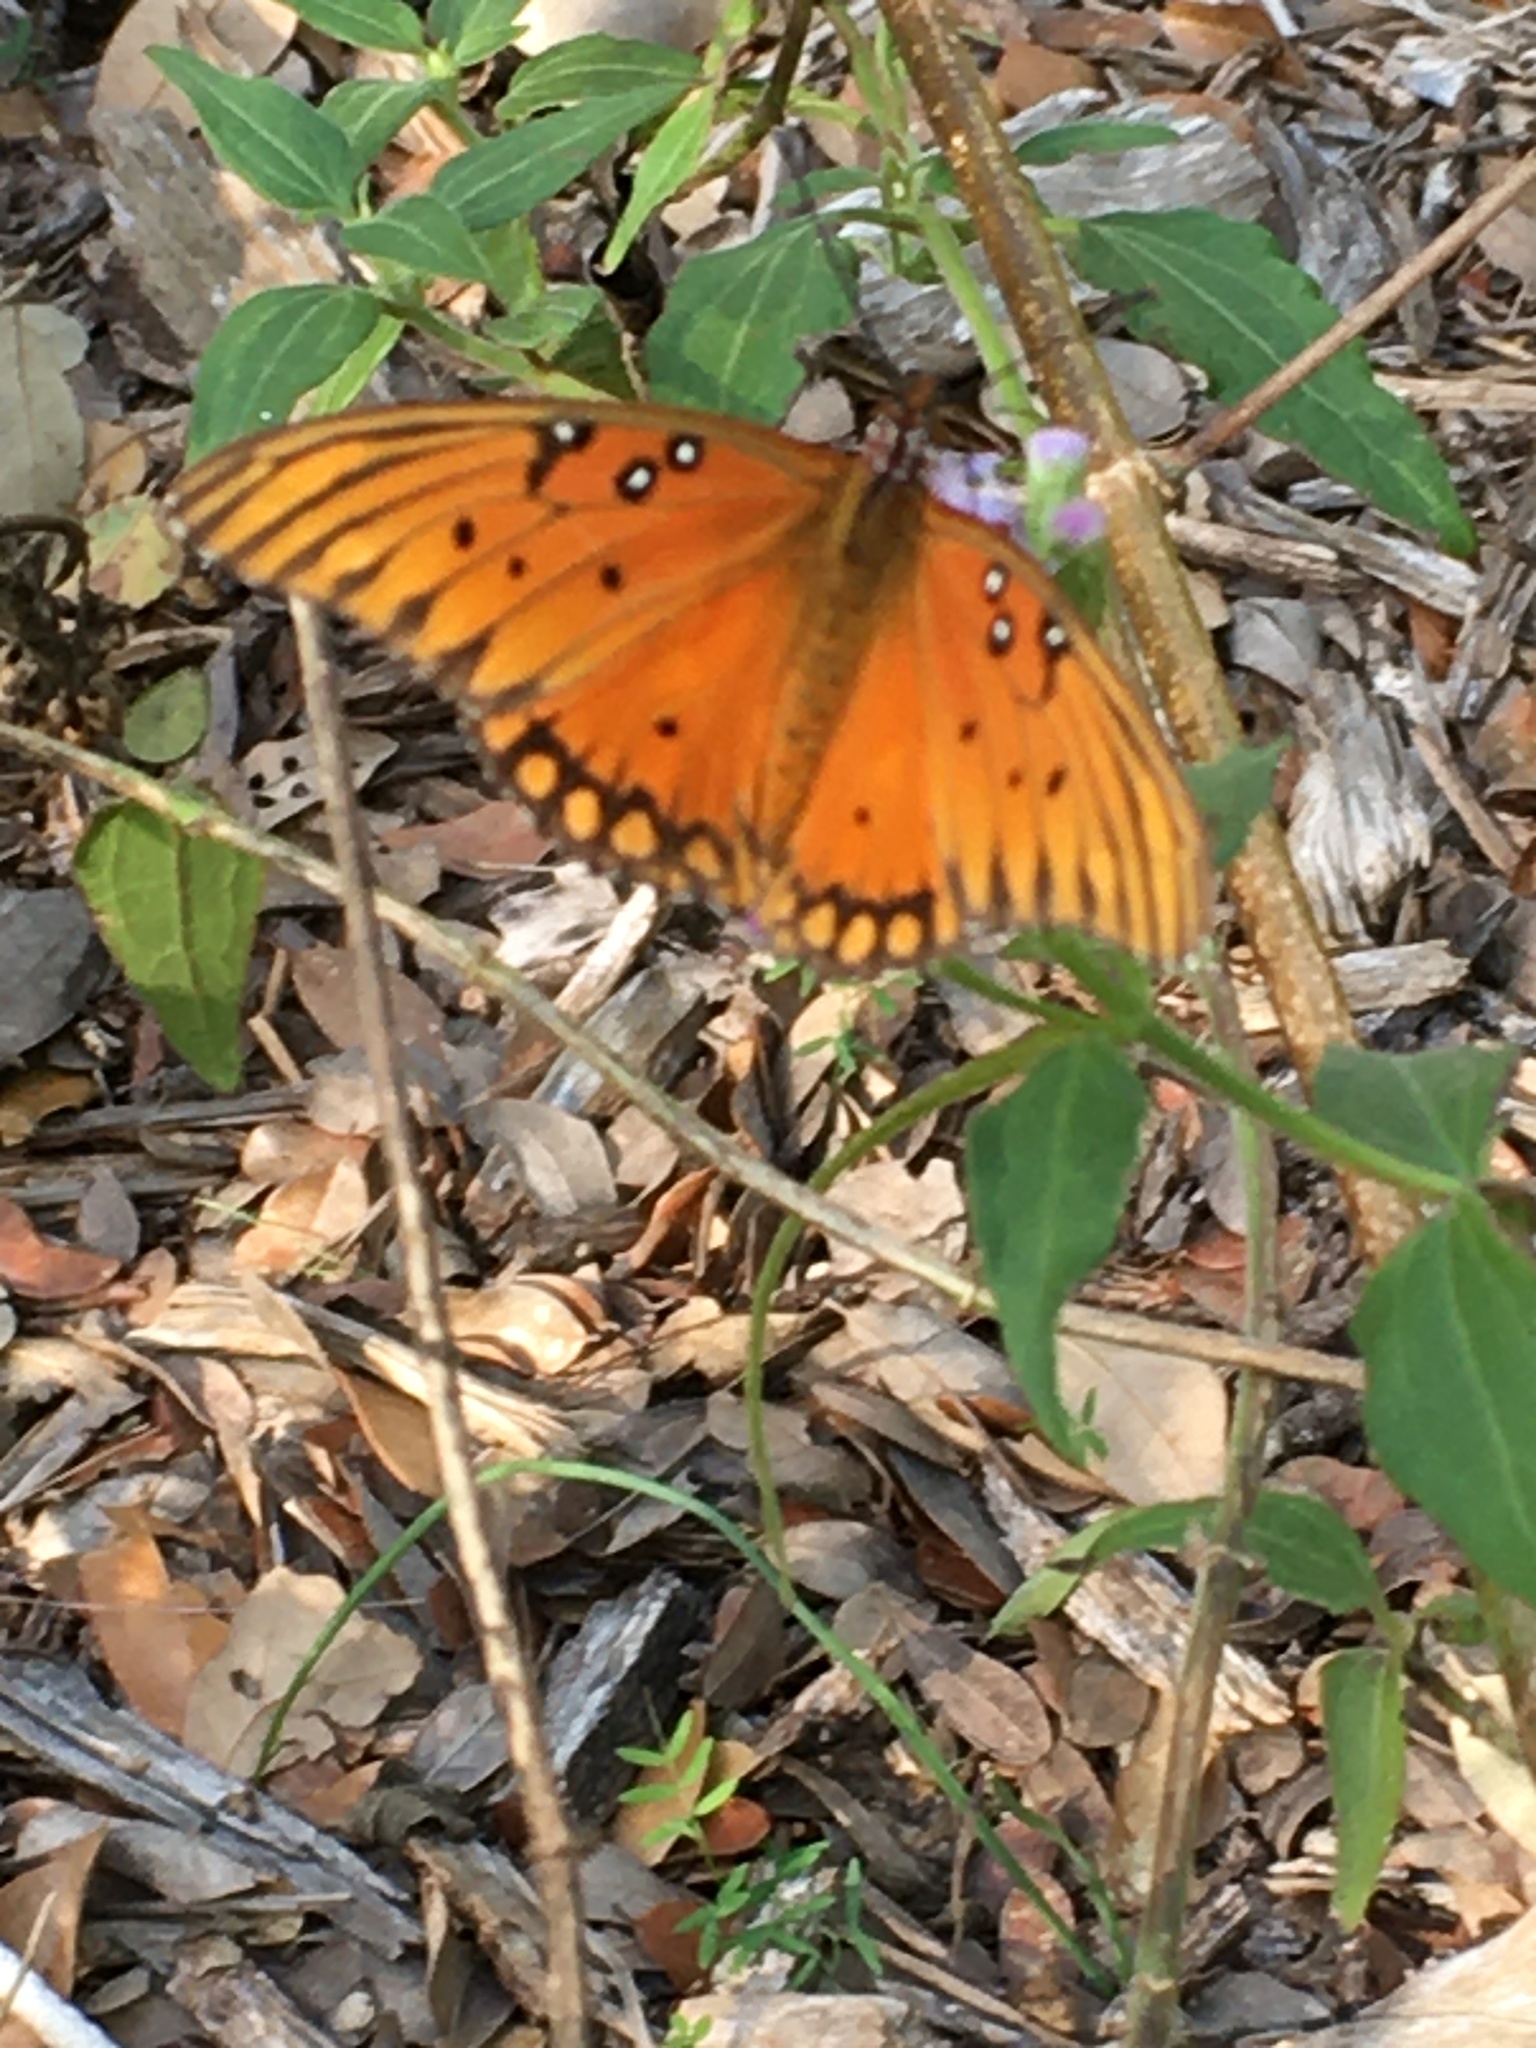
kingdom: Animalia
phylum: Arthropoda
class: Insecta
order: Lepidoptera
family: Nymphalidae
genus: Dione
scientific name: Dione vanillae
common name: Gulf fritillary
